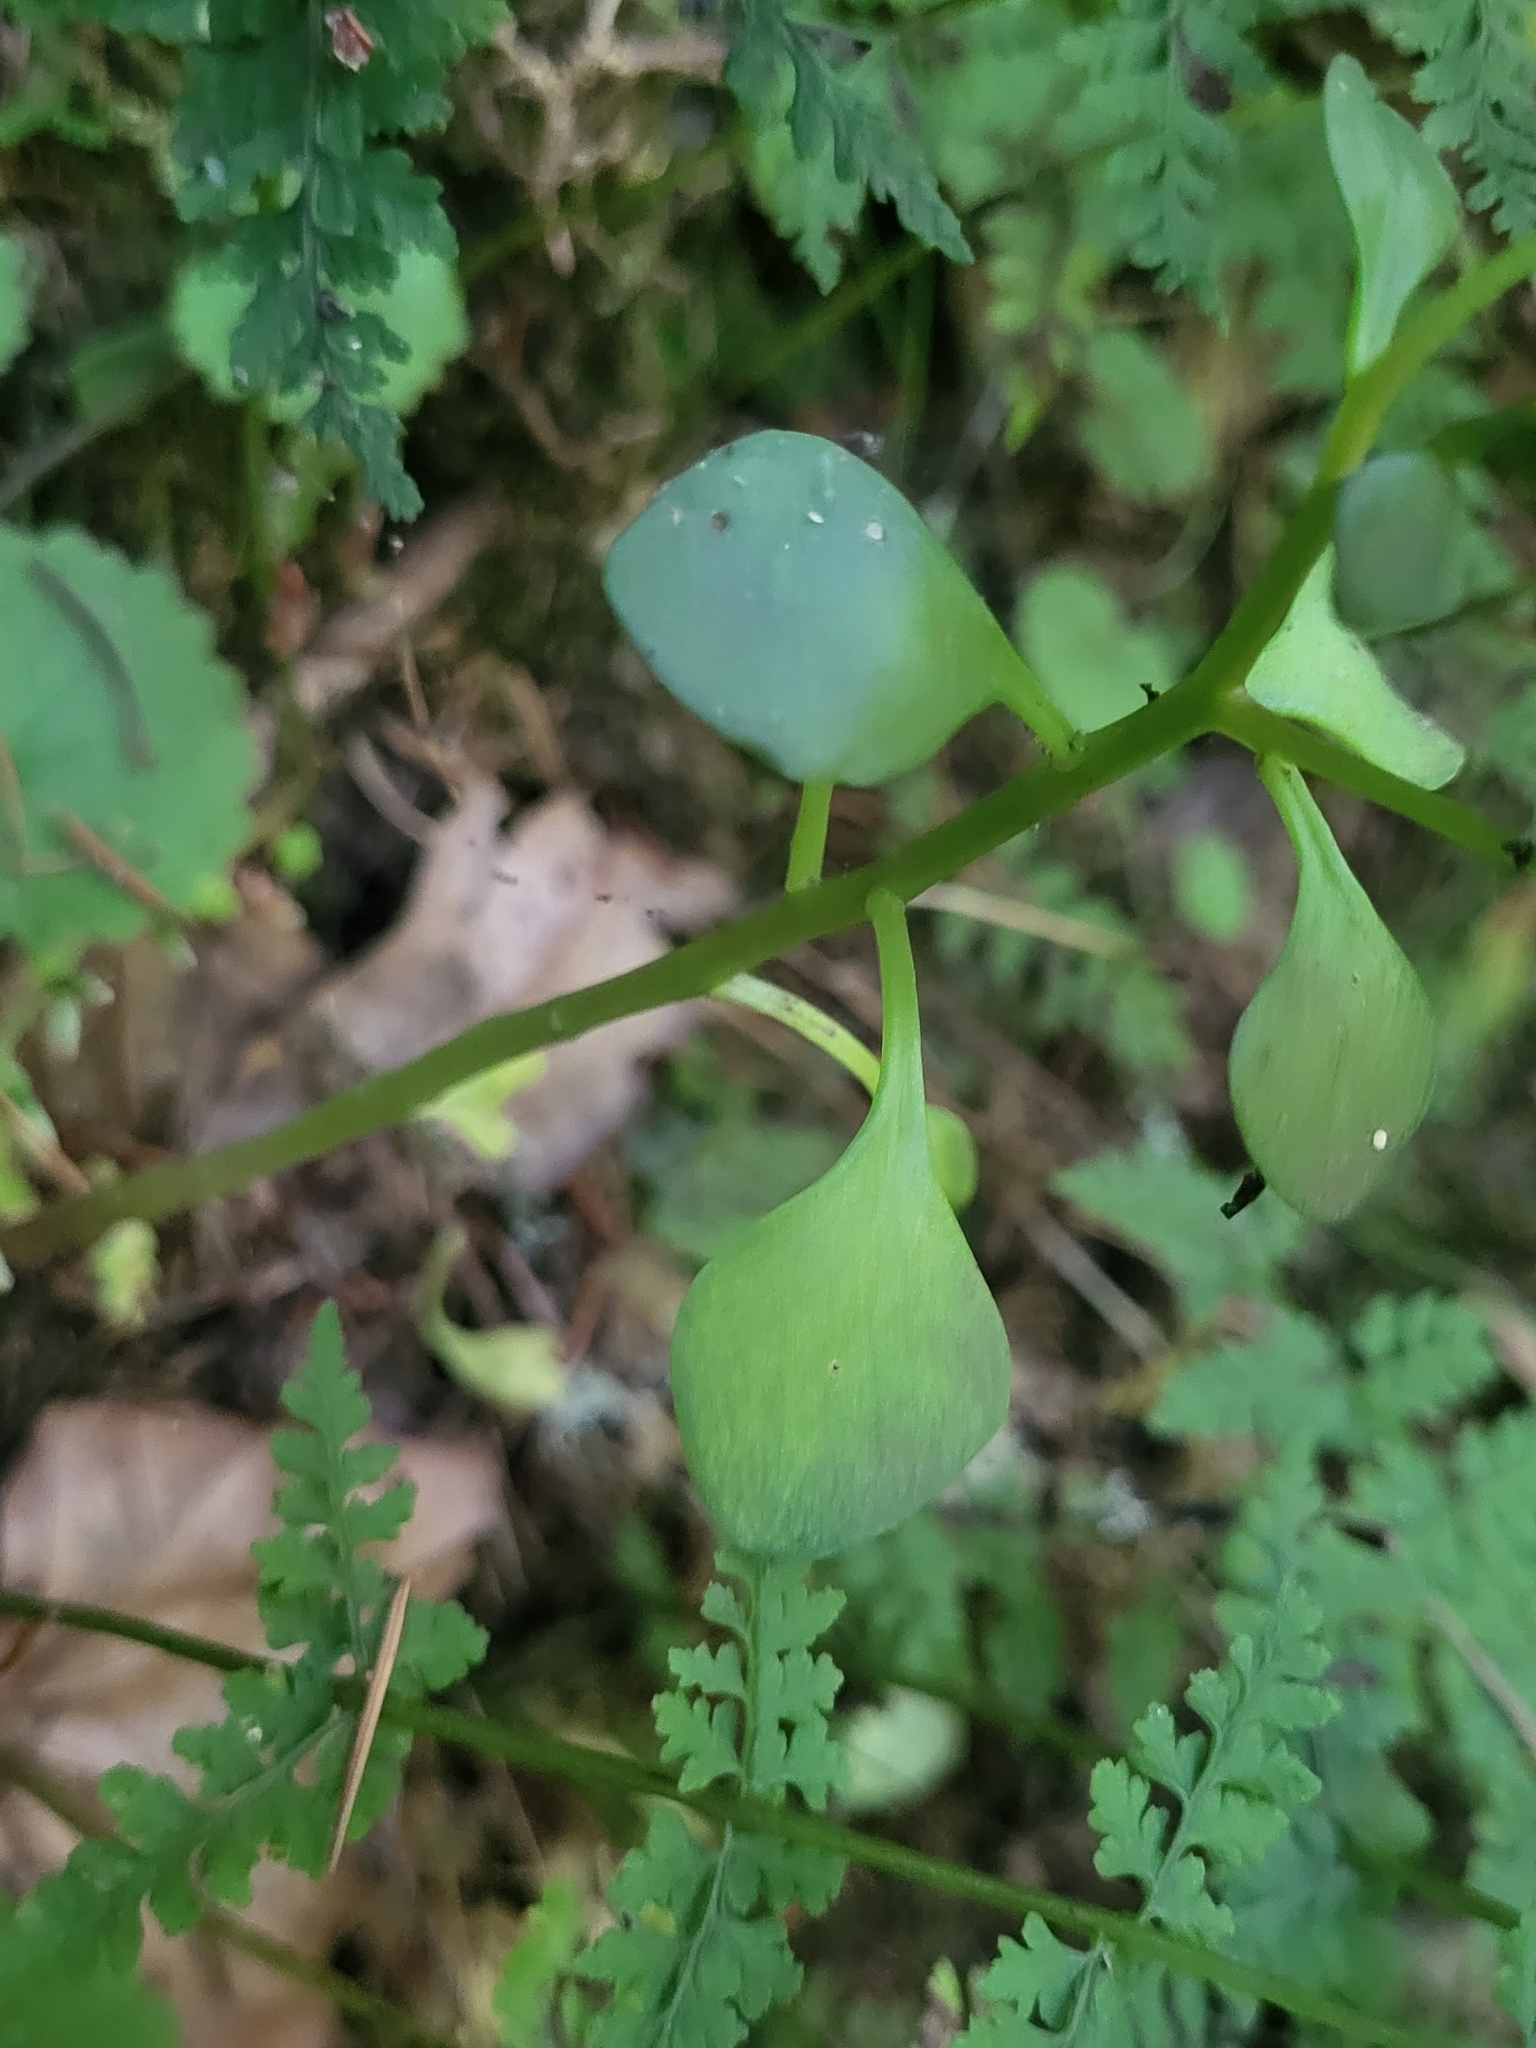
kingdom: Plantae
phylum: Tracheophyta
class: Magnoliopsida
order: Saxifragales
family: Crassulaceae
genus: Aichryson
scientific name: Aichryson divaricatum
